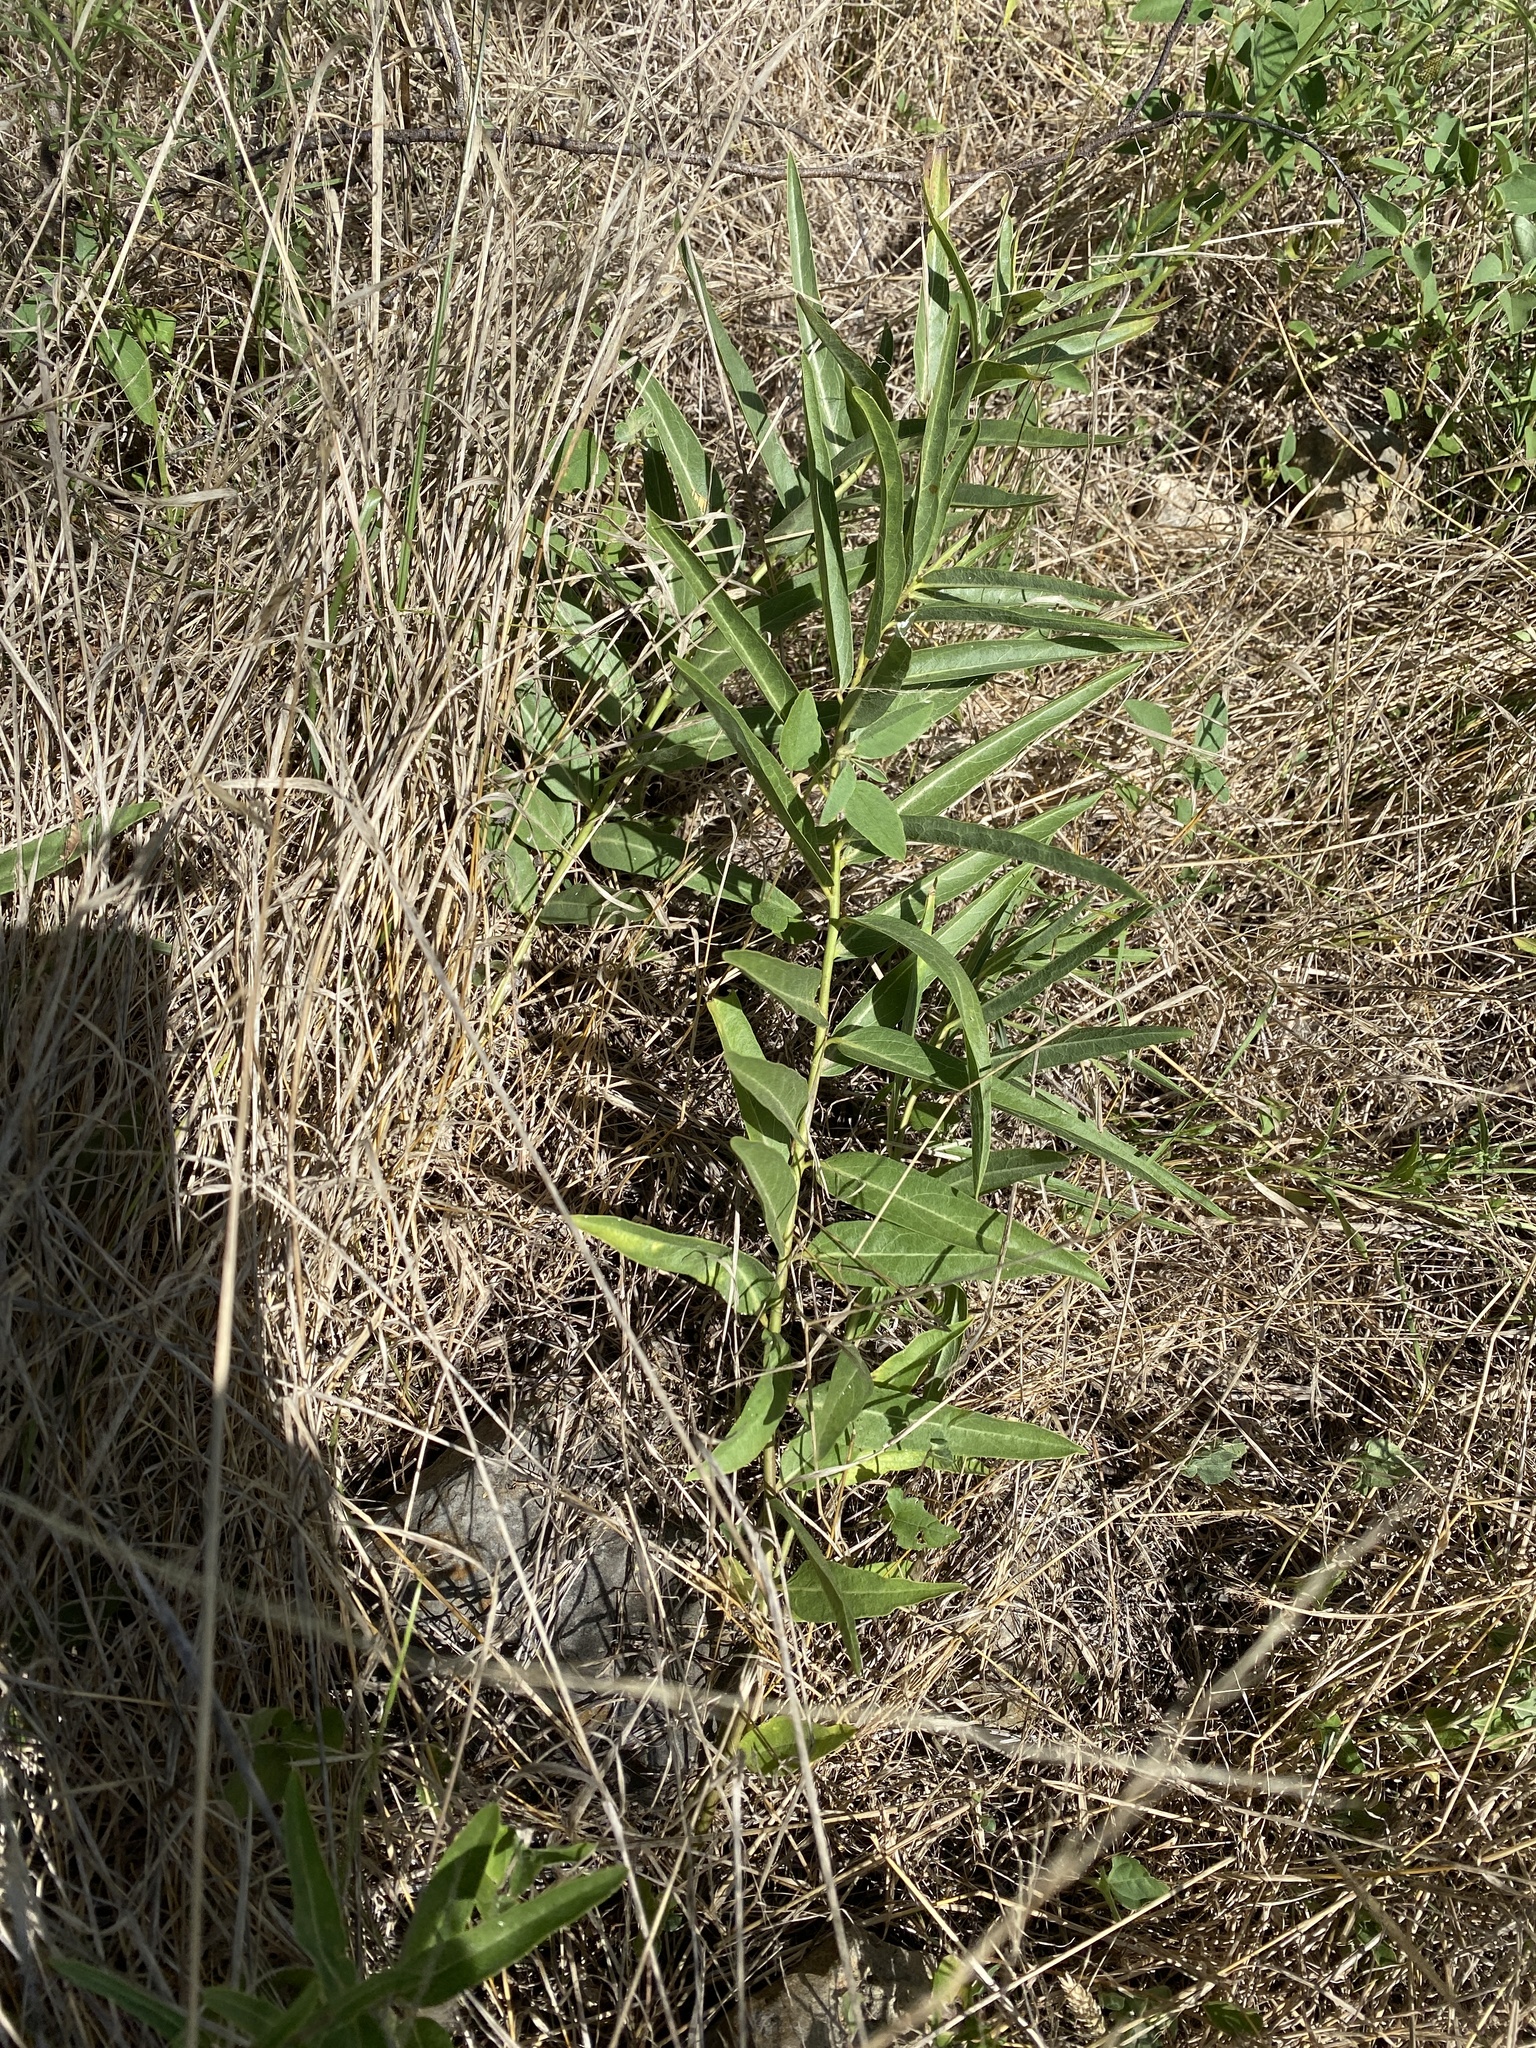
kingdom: Plantae
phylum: Tracheophyta
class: Magnoliopsida
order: Gentianales
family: Apocynaceae
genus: Asclepias
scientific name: Asclepias asperula
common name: Antelope horns
